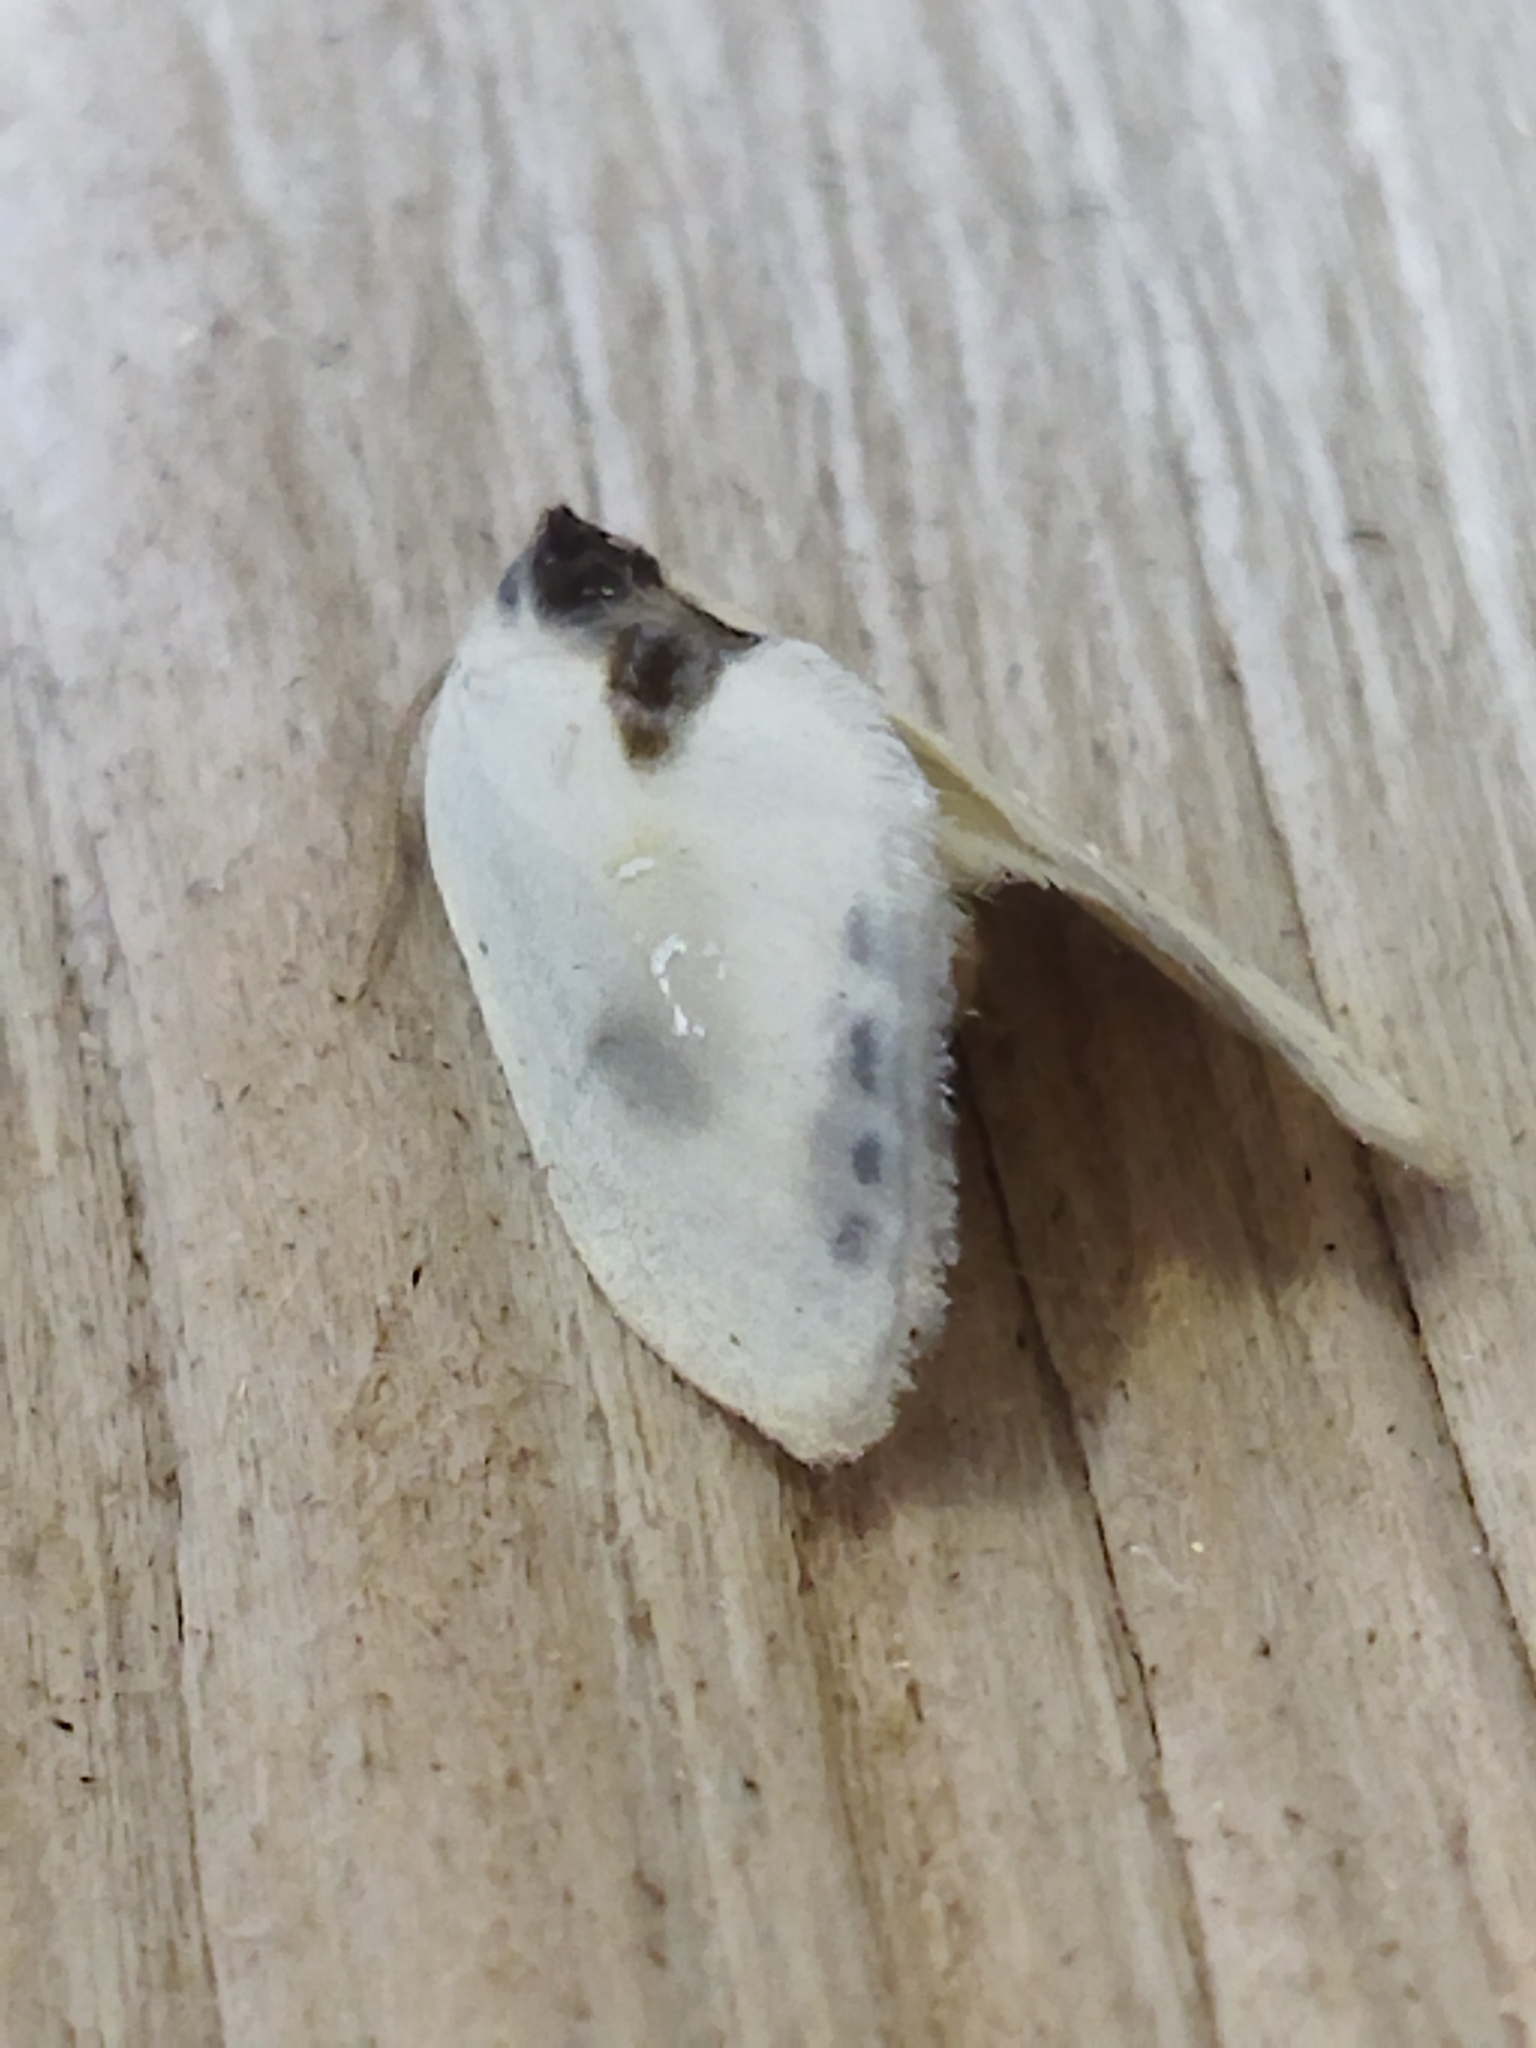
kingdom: Animalia
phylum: Arthropoda
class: Insecta
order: Lepidoptera
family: Drepanidae
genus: Cilix
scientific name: Cilix asiatica
